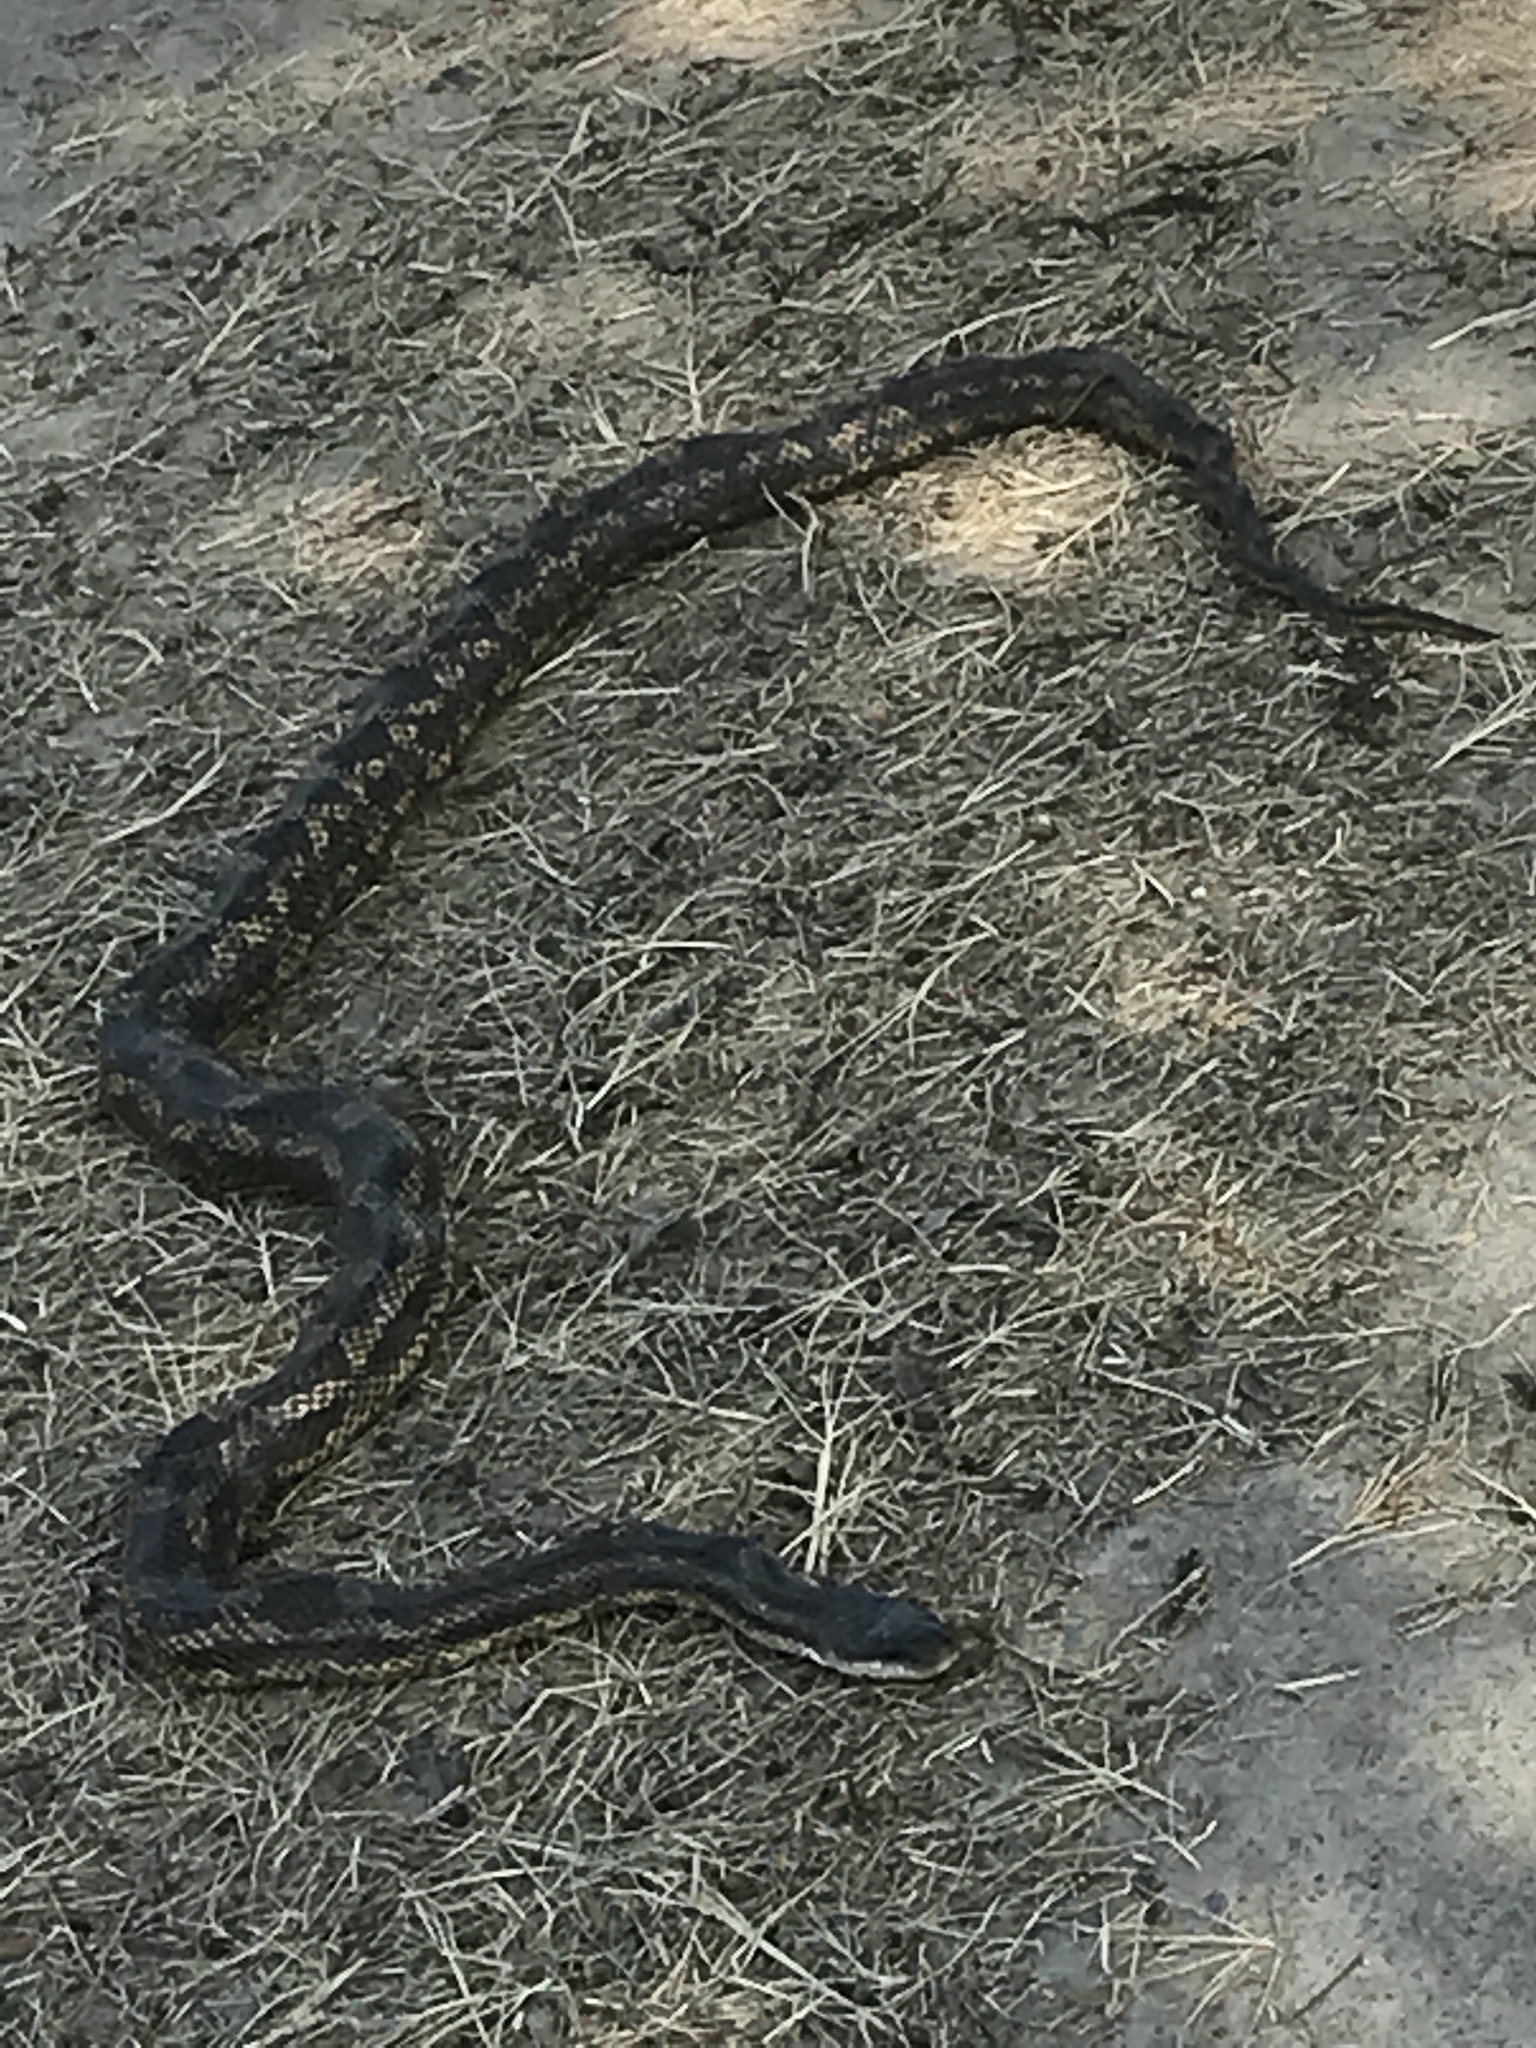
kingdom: Animalia
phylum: Chordata
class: Squamata
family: Colubridae
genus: Pantherophis
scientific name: Pantherophis obsoletus
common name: Black rat snake
